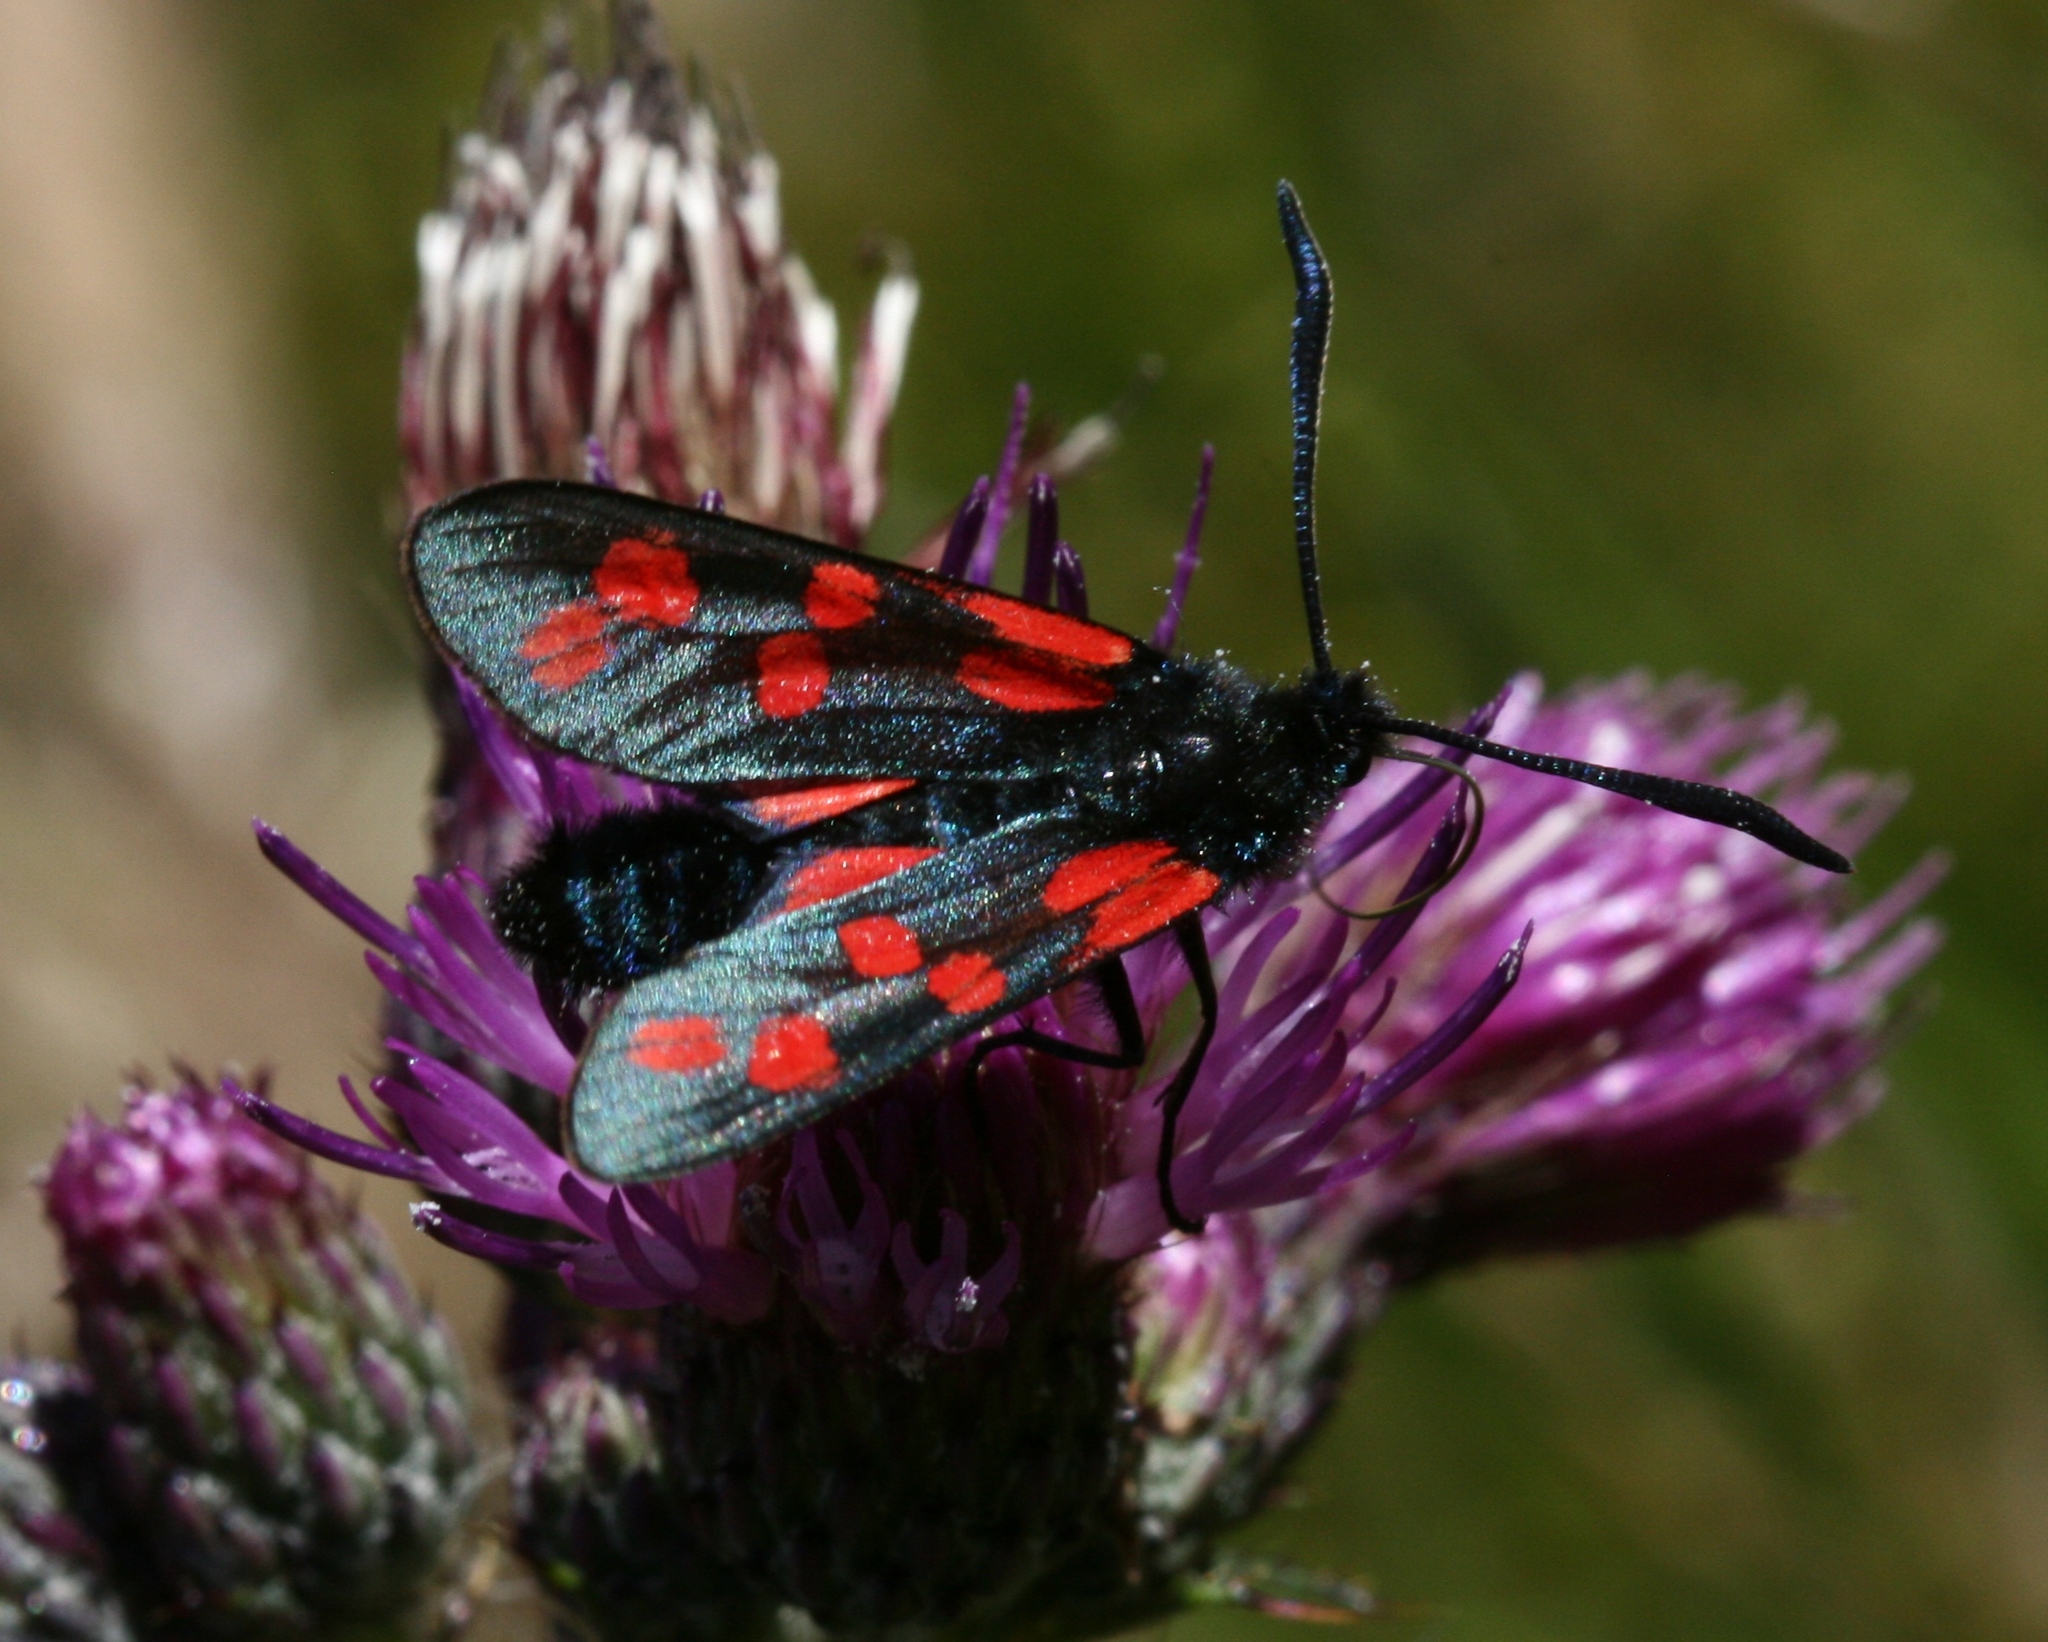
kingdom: Animalia
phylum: Arthropoda
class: Insecta
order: Lepidoptera
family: Zygaenidae
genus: Zygaena
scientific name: Zygaena filipendulae
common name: Six-spot burnet
